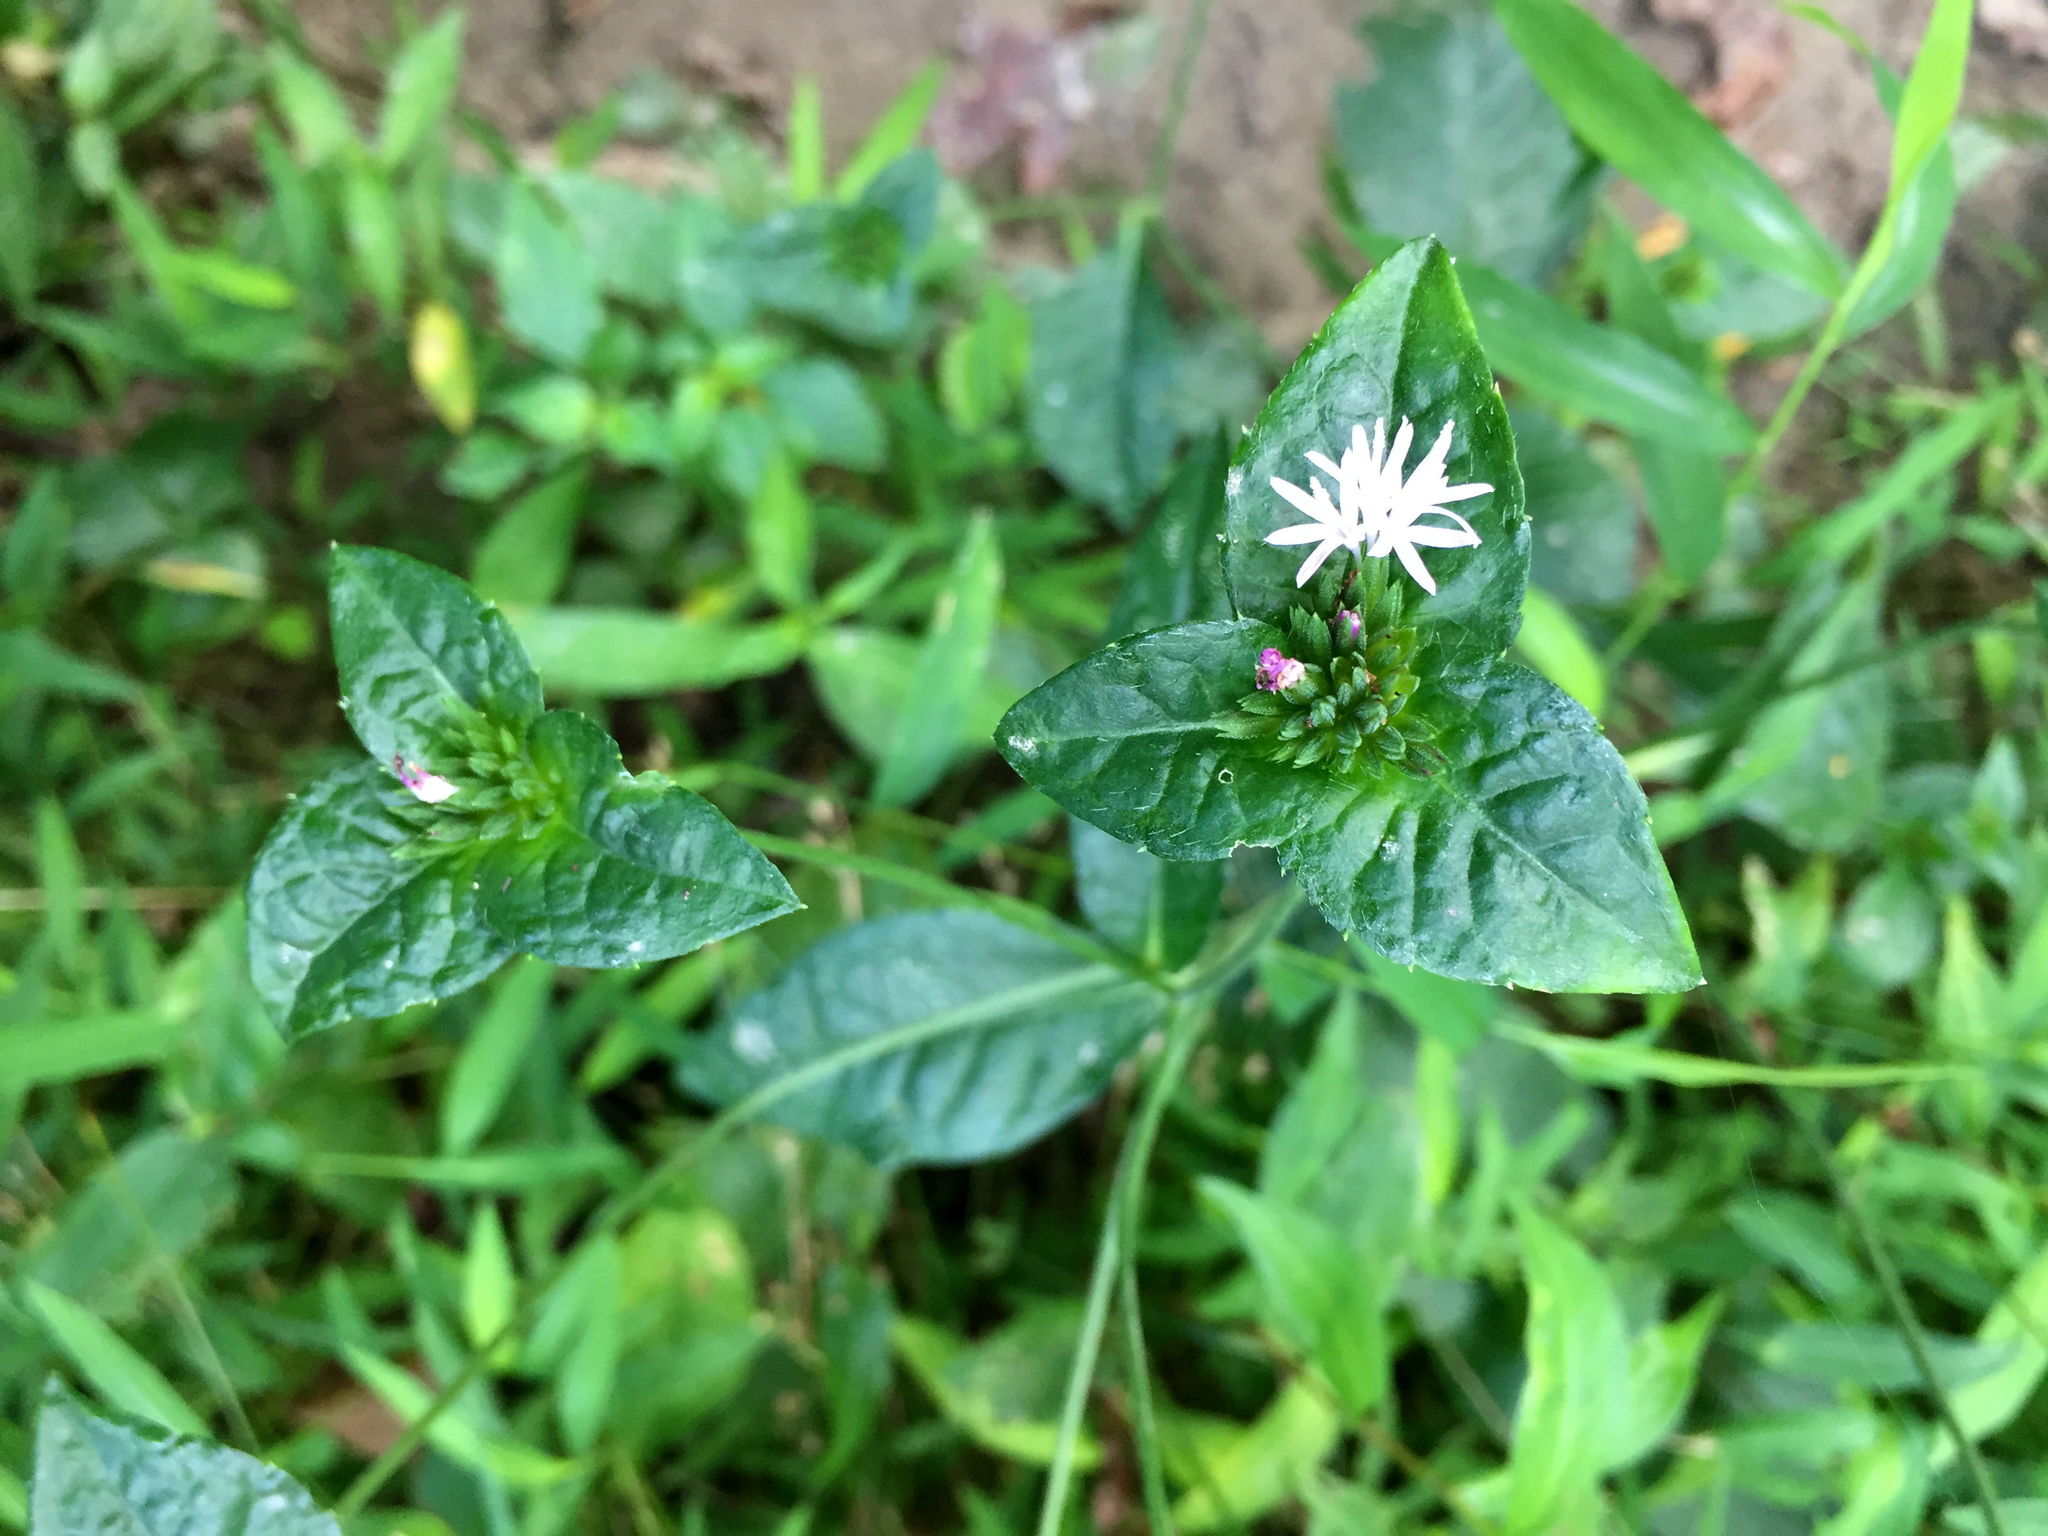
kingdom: Plantae
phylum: Tracheophyta
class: Magnoliopsida
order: Asterales
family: Asteraceae
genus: Elephantopus
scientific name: Elephantopus carolinianus
